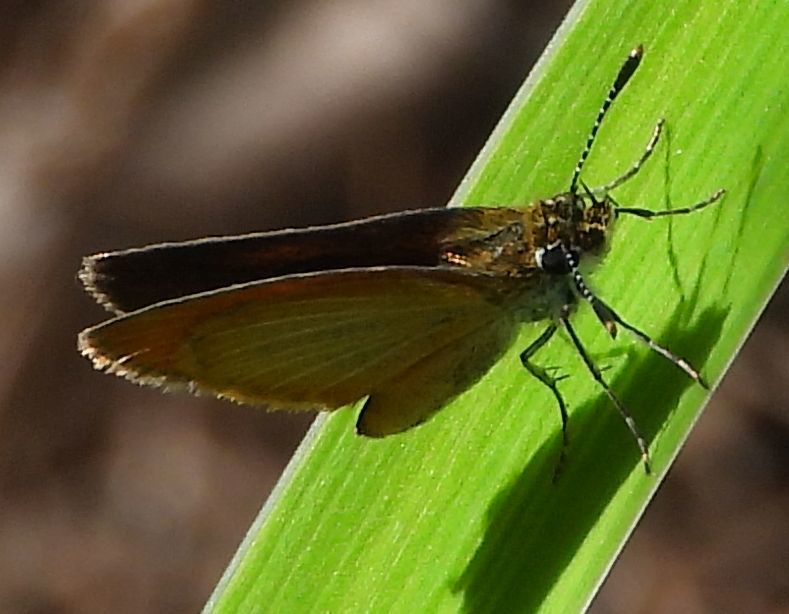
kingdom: Animalia
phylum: Arthropoda
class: Insecta
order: Lepidoptera
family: Hesperiidae
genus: Ancyloxypha
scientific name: Ancyloxypha numitor
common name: Least skipper
